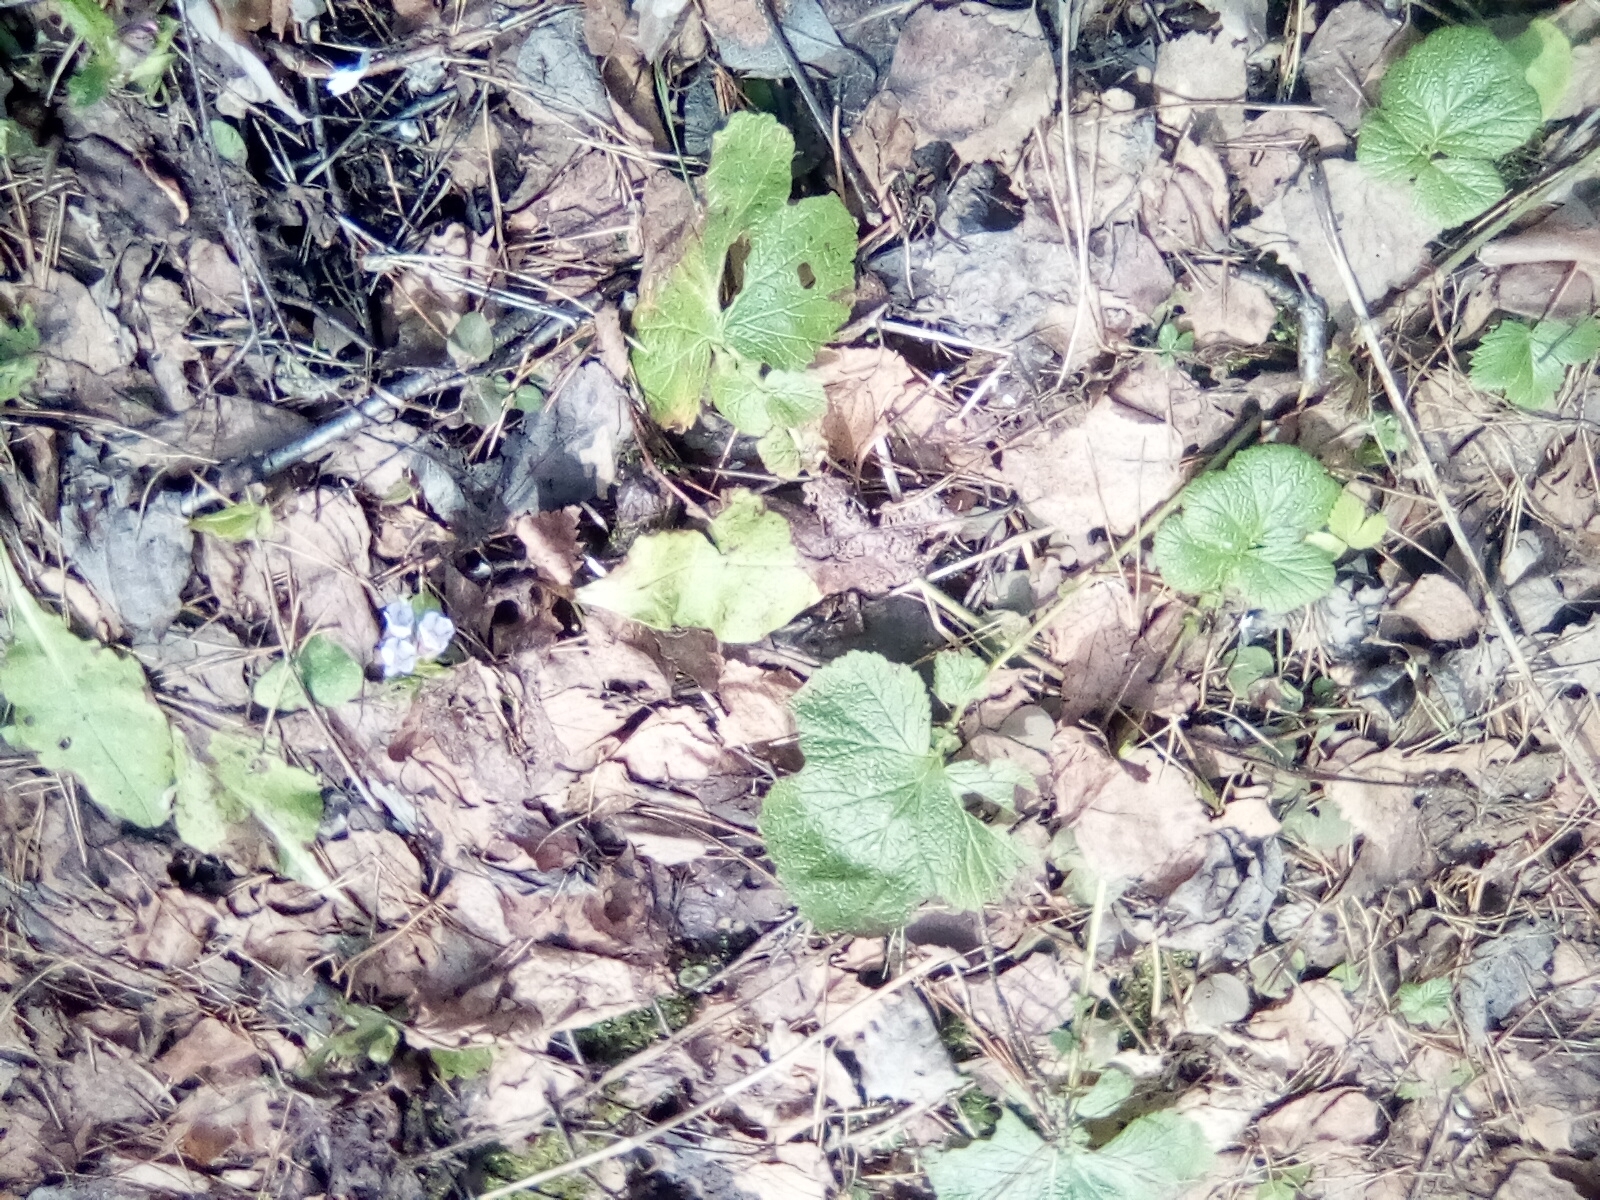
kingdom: Plantae
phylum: Tracheophyta
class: Magnoliopsida
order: Boraginales
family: Boraginaceae
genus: Pulmonaria
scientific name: Pulmonaria obscura
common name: Suffolk lungwort
